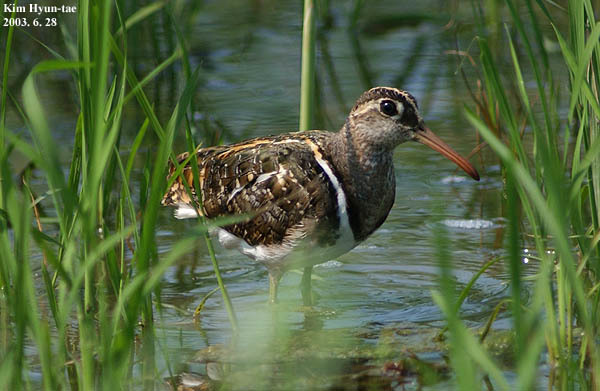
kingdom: Animalia
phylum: Chordata
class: Aves
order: Charadriiformes
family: Rostratulidae
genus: Rostratula
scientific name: Rostratula benghalensis
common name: Greater painted-snipe
